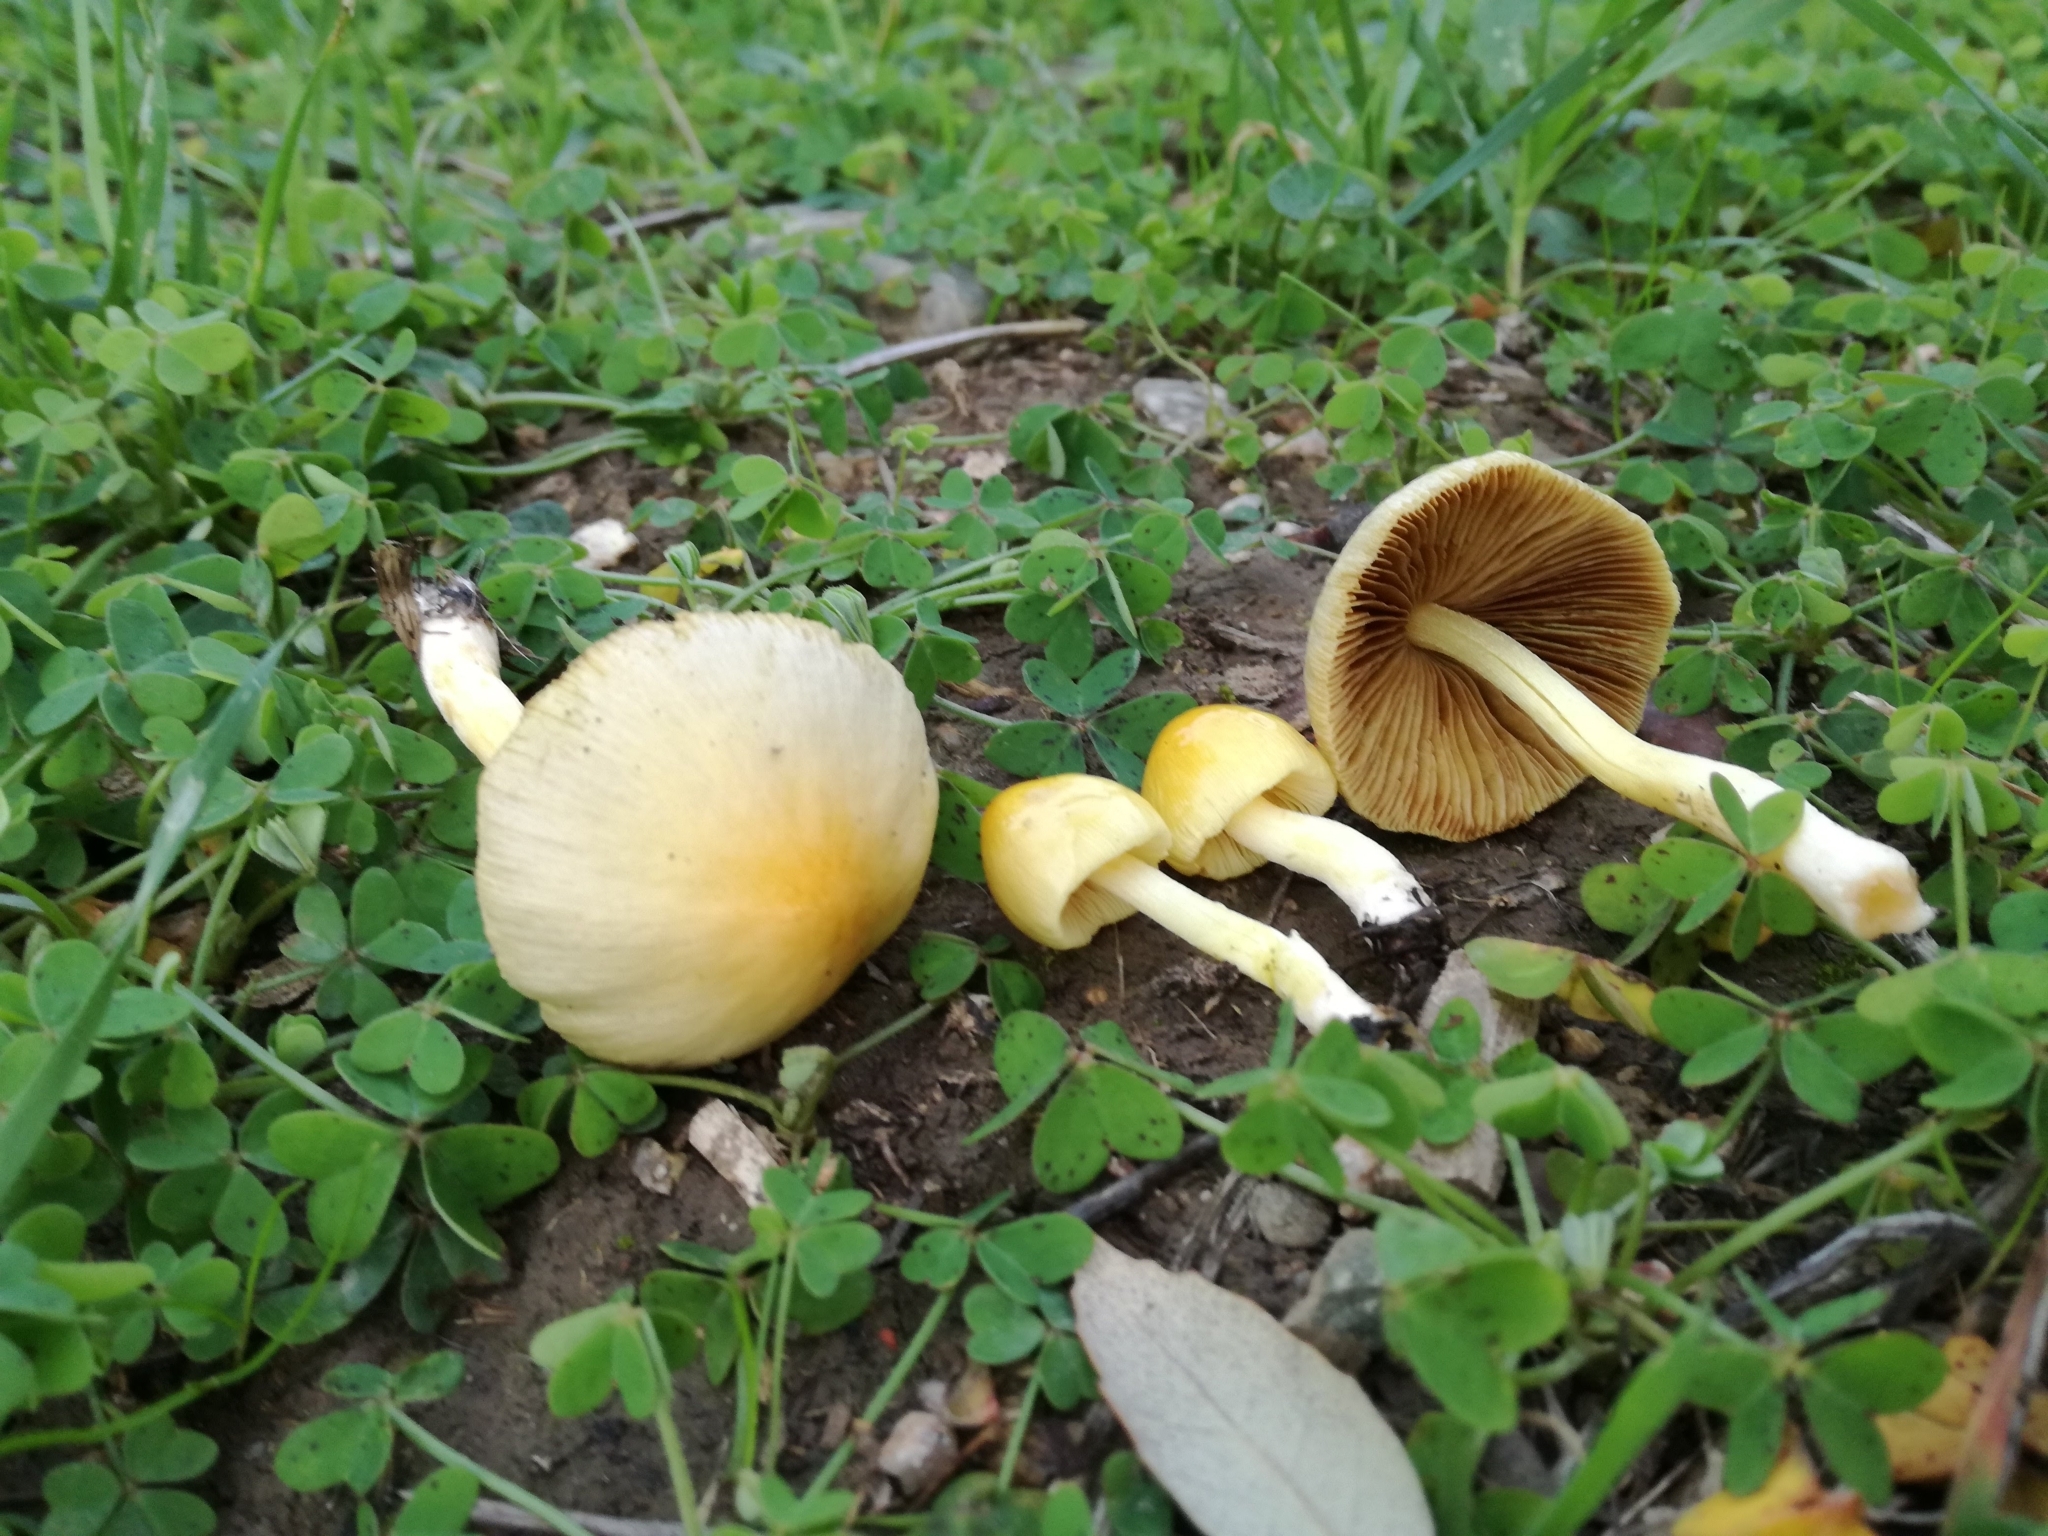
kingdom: Fungi
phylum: Basidiomycota
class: Agaricomycetes
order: Agaricales
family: Bolbitiaceae
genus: Bolbitius
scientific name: Bolbitius titubans
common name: Yellow fieldcap
